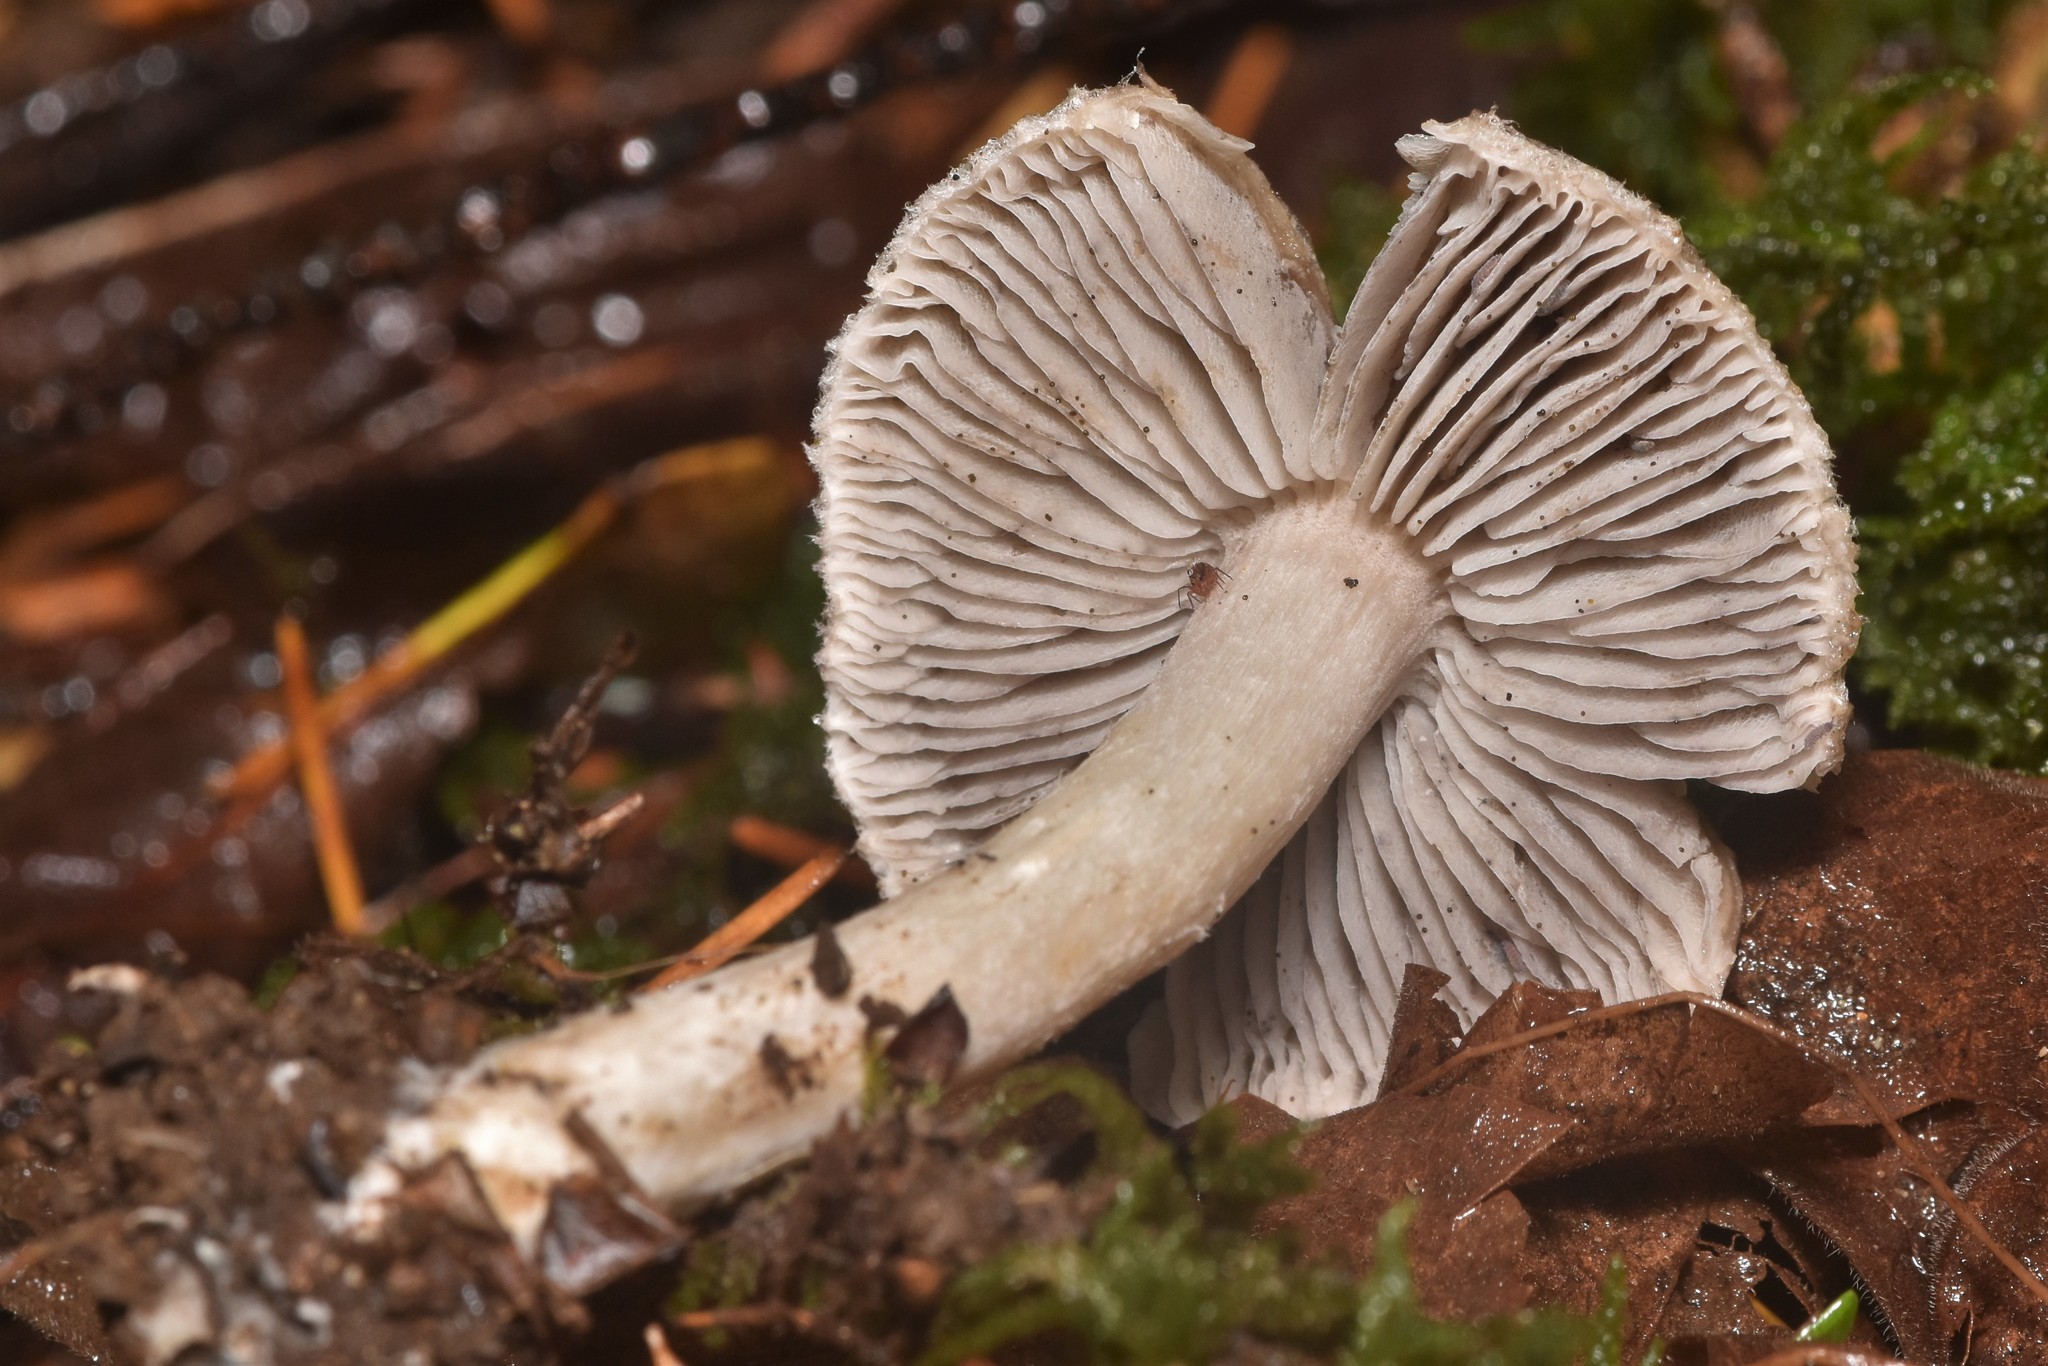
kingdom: Fungi
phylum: Basidiomycota
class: Agaricomycetes
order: Agaricales
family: Tricholomataceae
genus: Tricholoma
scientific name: Tricholoma terreum
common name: Grey knight
